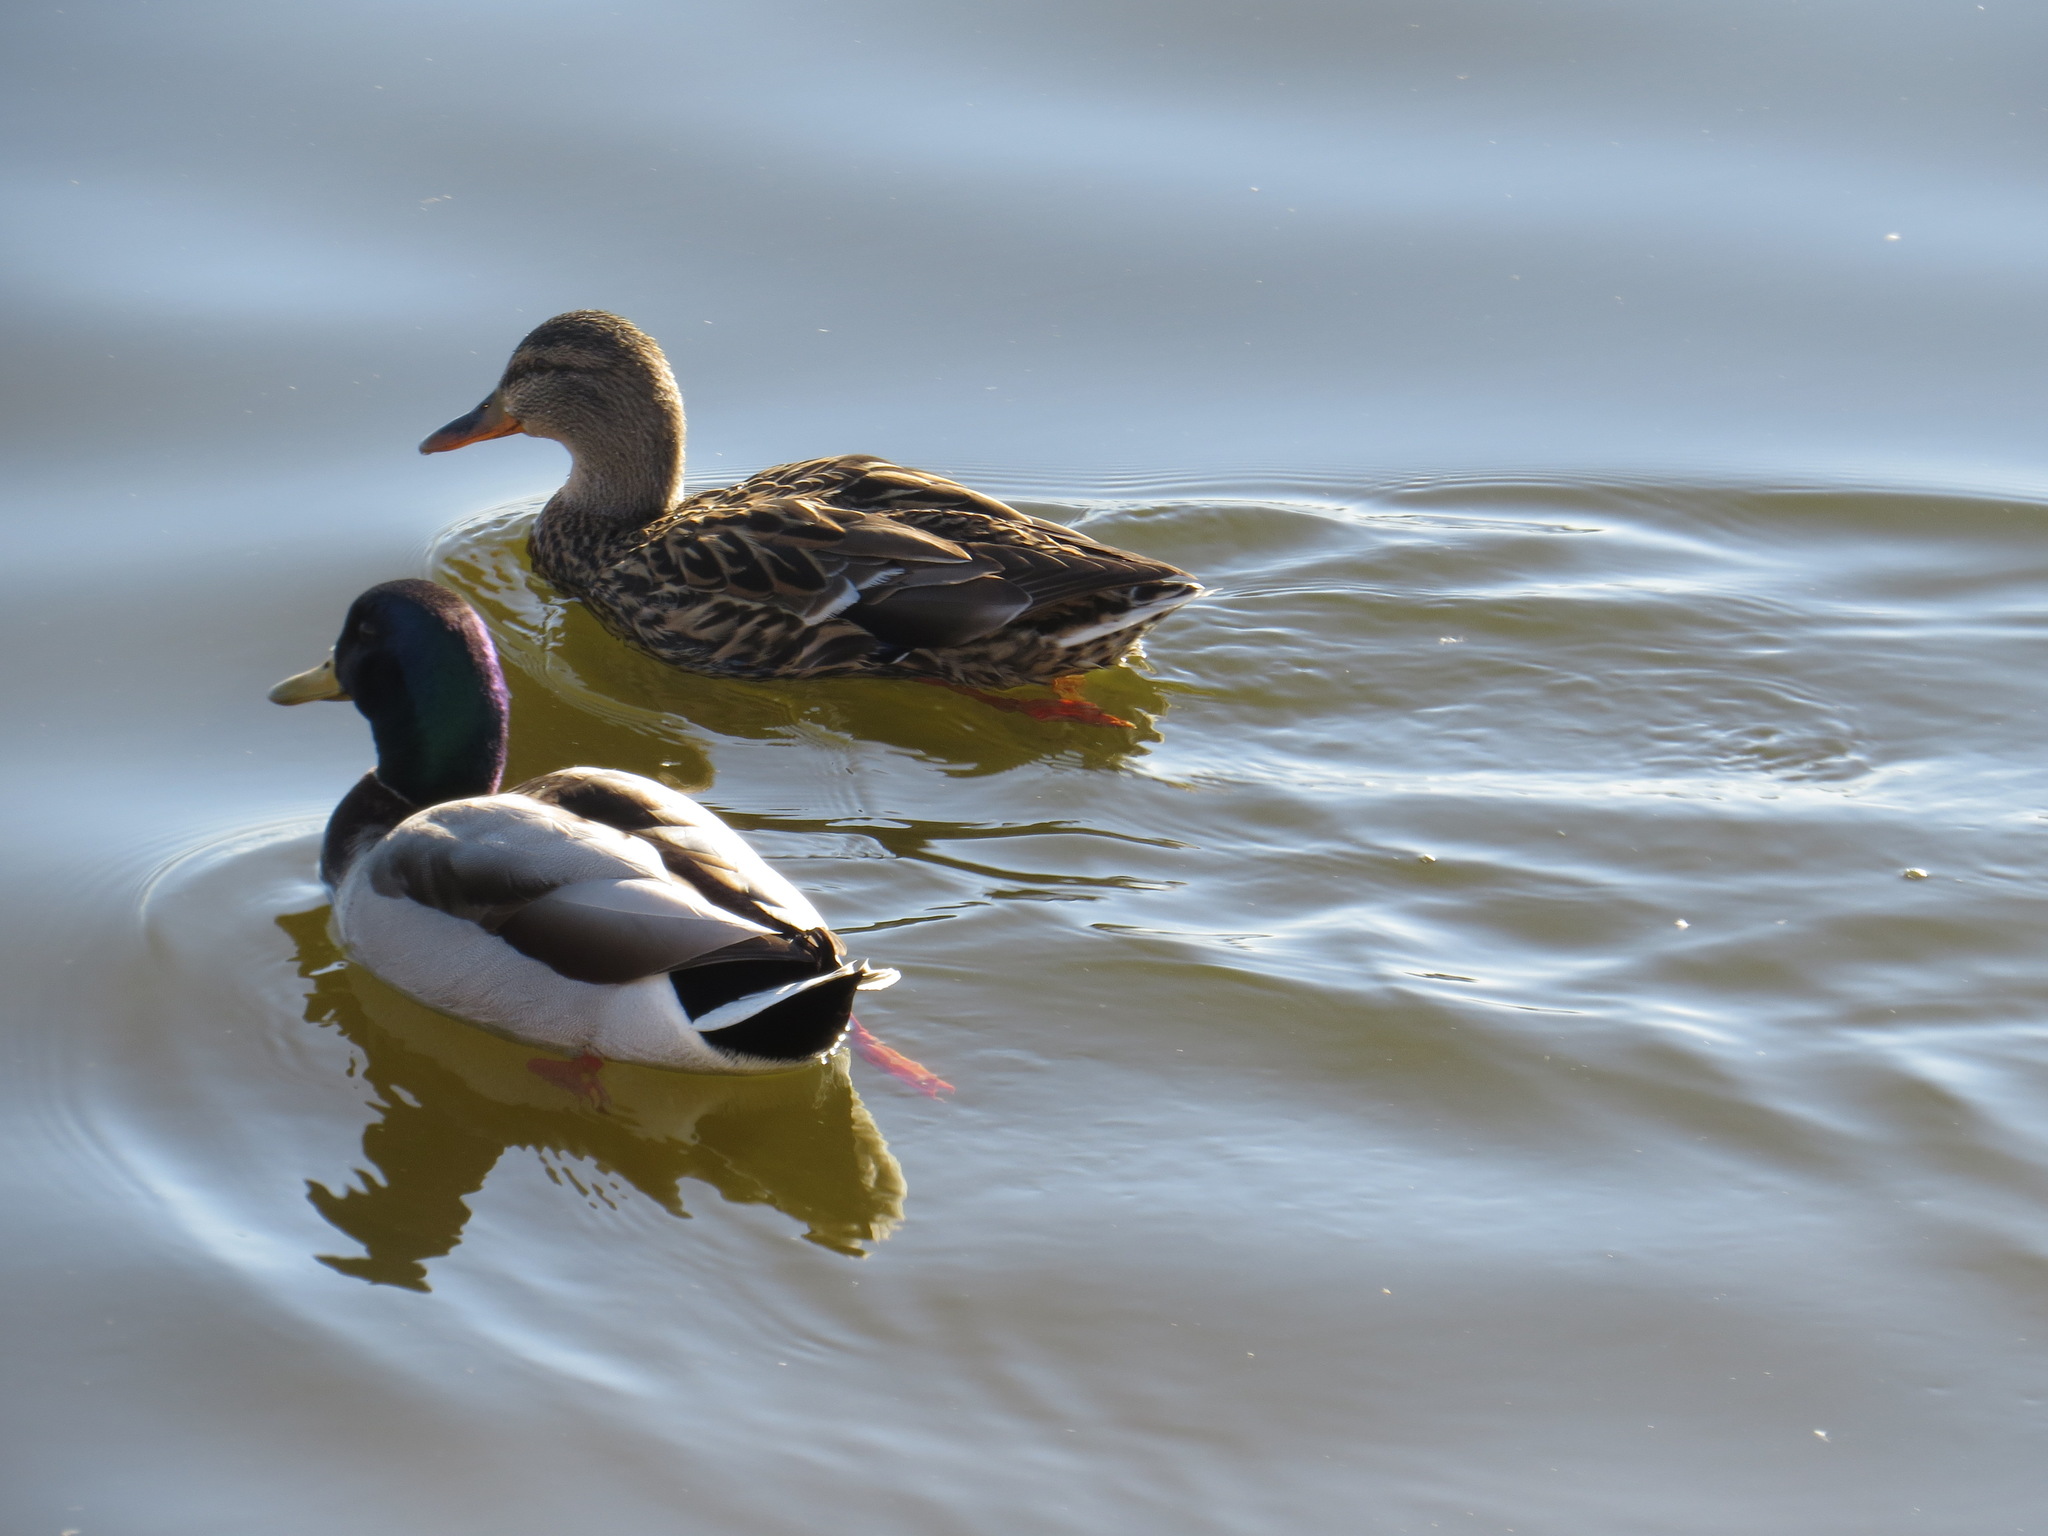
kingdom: Animalia
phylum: Chordata
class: Aves
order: Anseriformes
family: Anatidae
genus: Anas
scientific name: Anas platyrhynchos
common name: Mallard
